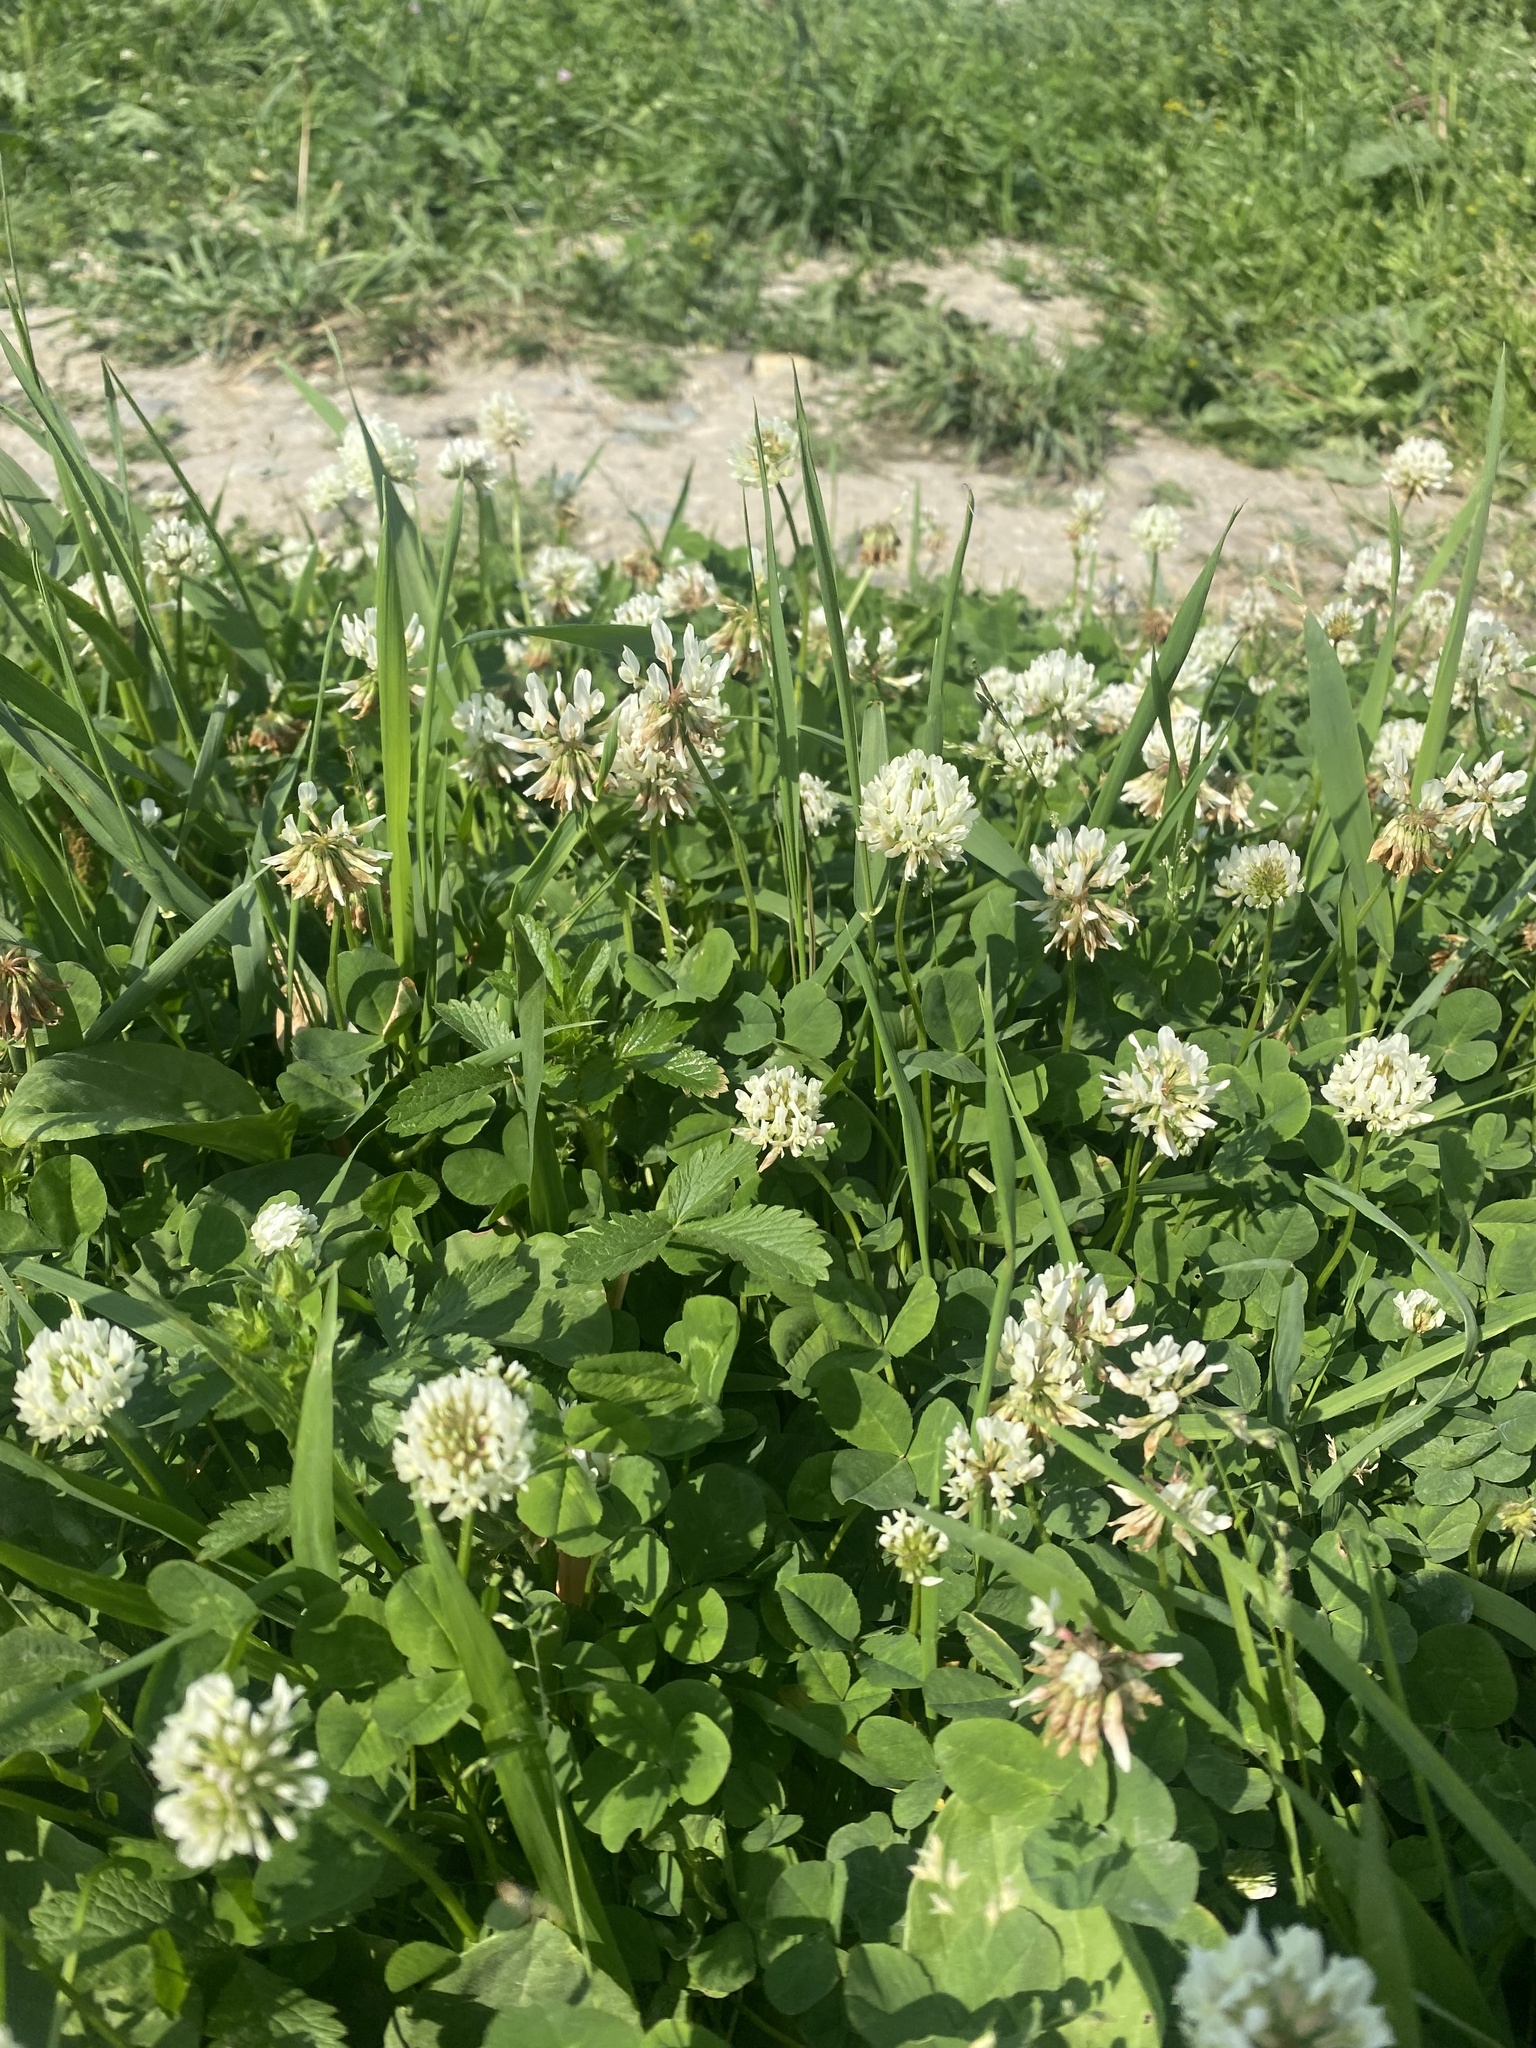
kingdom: Plantae
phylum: Tracheophyta
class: Magnoliopsida
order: Fabales
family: Fabaceae
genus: Trifolium
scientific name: Trifolium repens
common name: White clover
